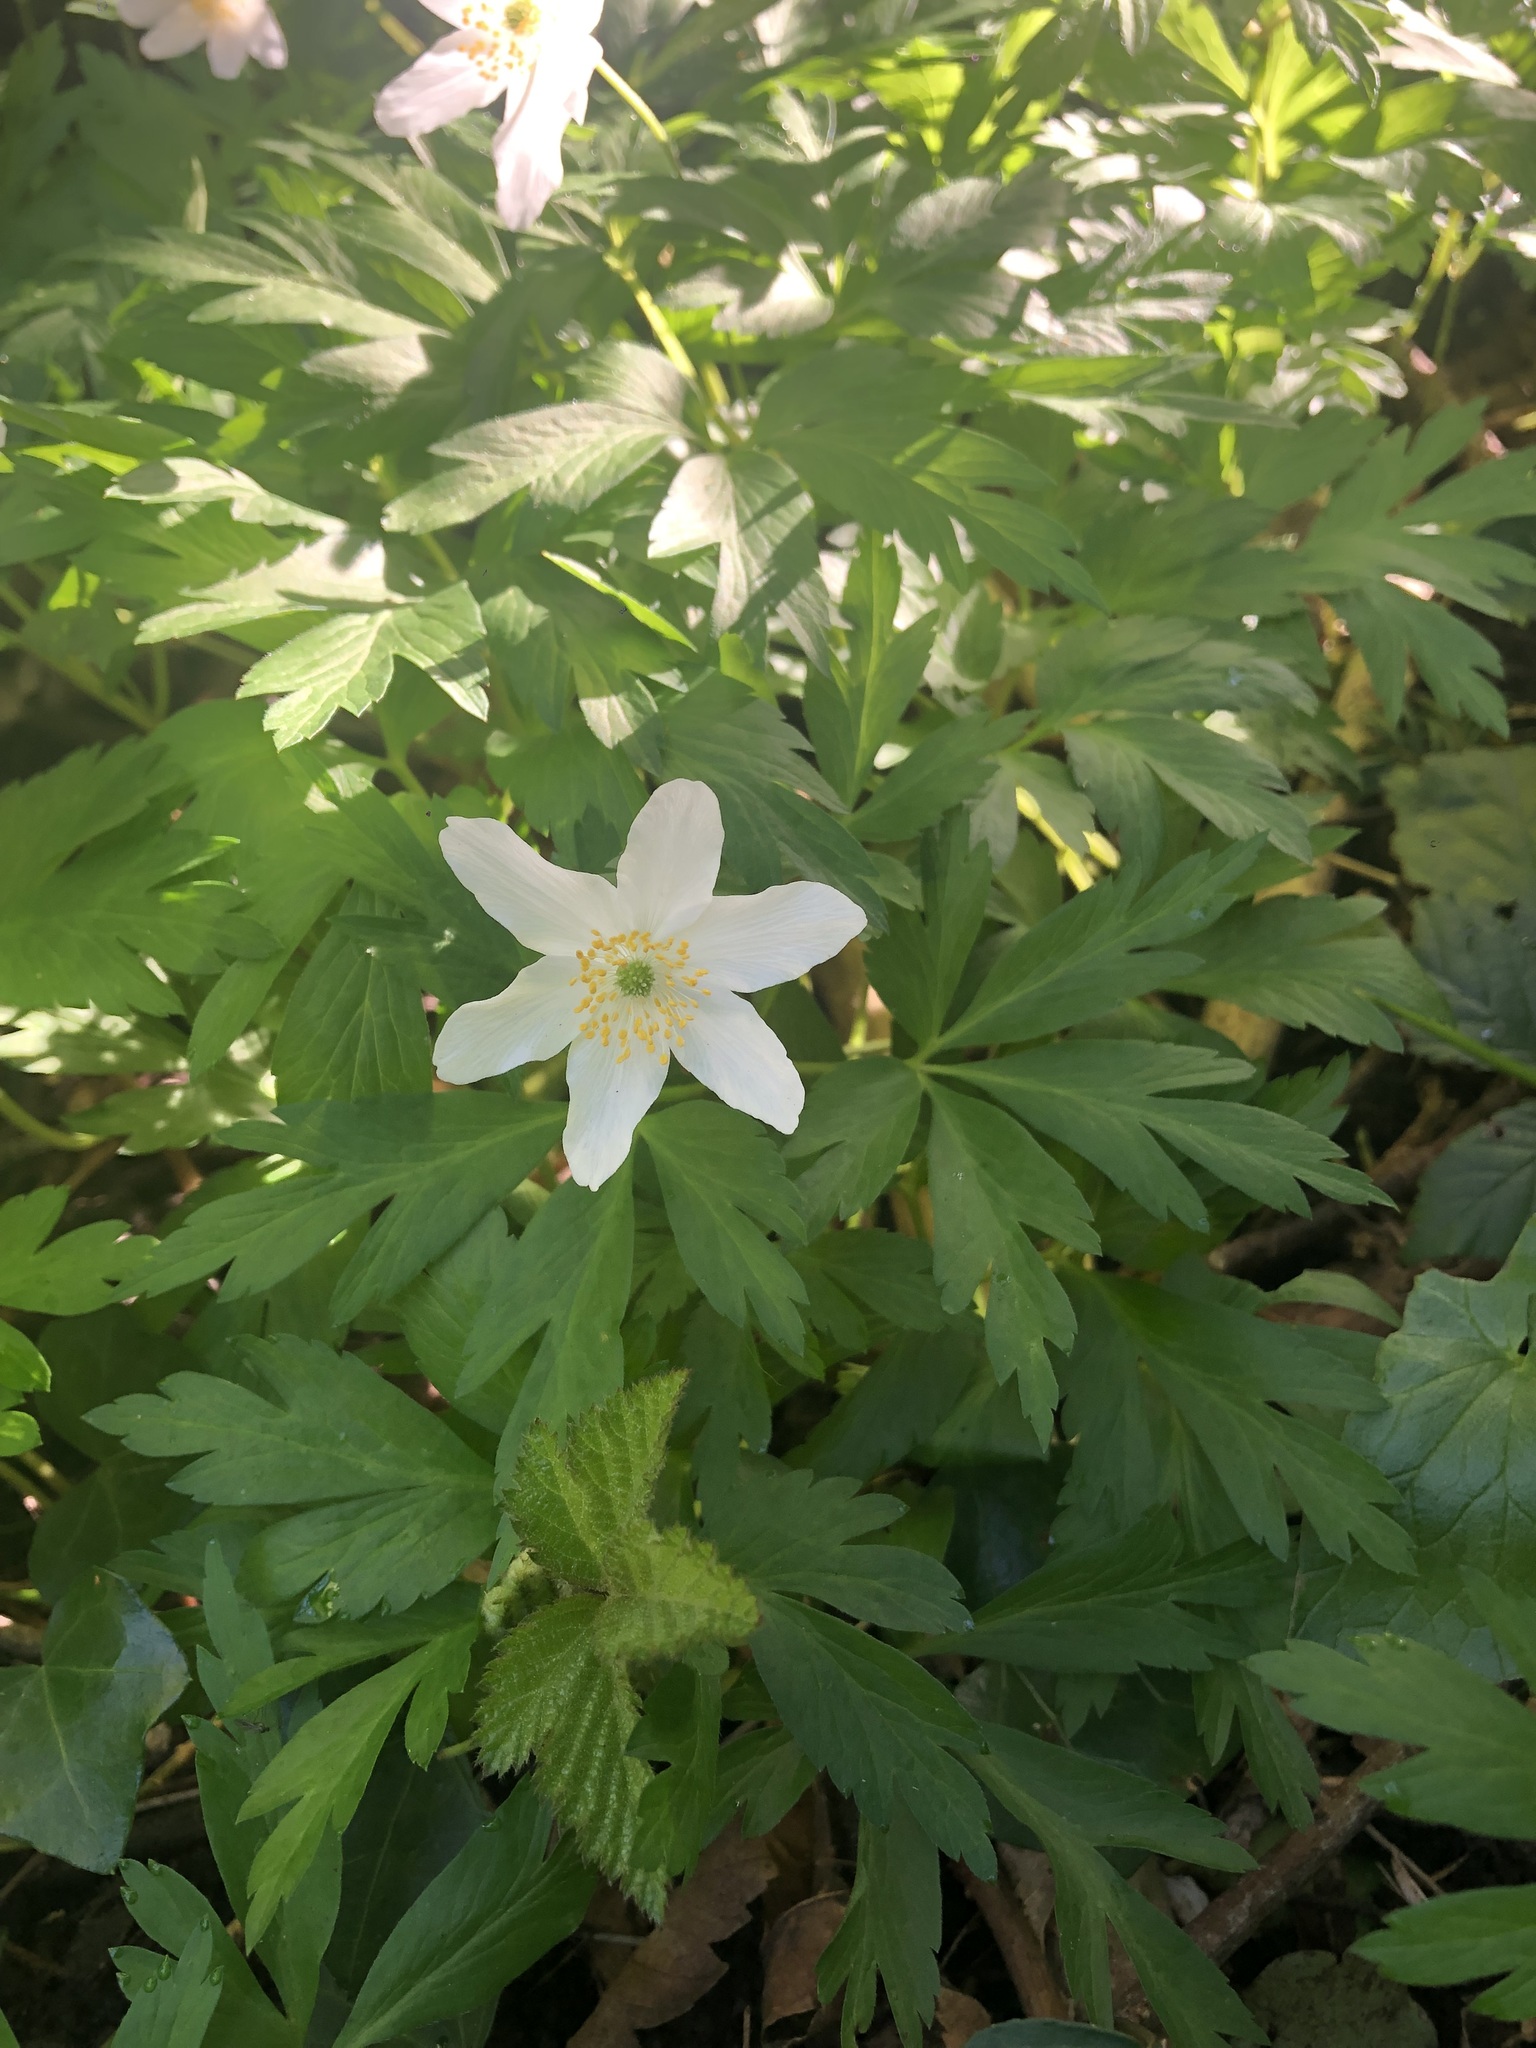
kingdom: Plantae
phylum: Tracheophyta
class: Magnoliopsida
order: Ranunculales
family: Ranunculaceae
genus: Anemone
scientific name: Anemone nemorosa
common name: Wood anemone
